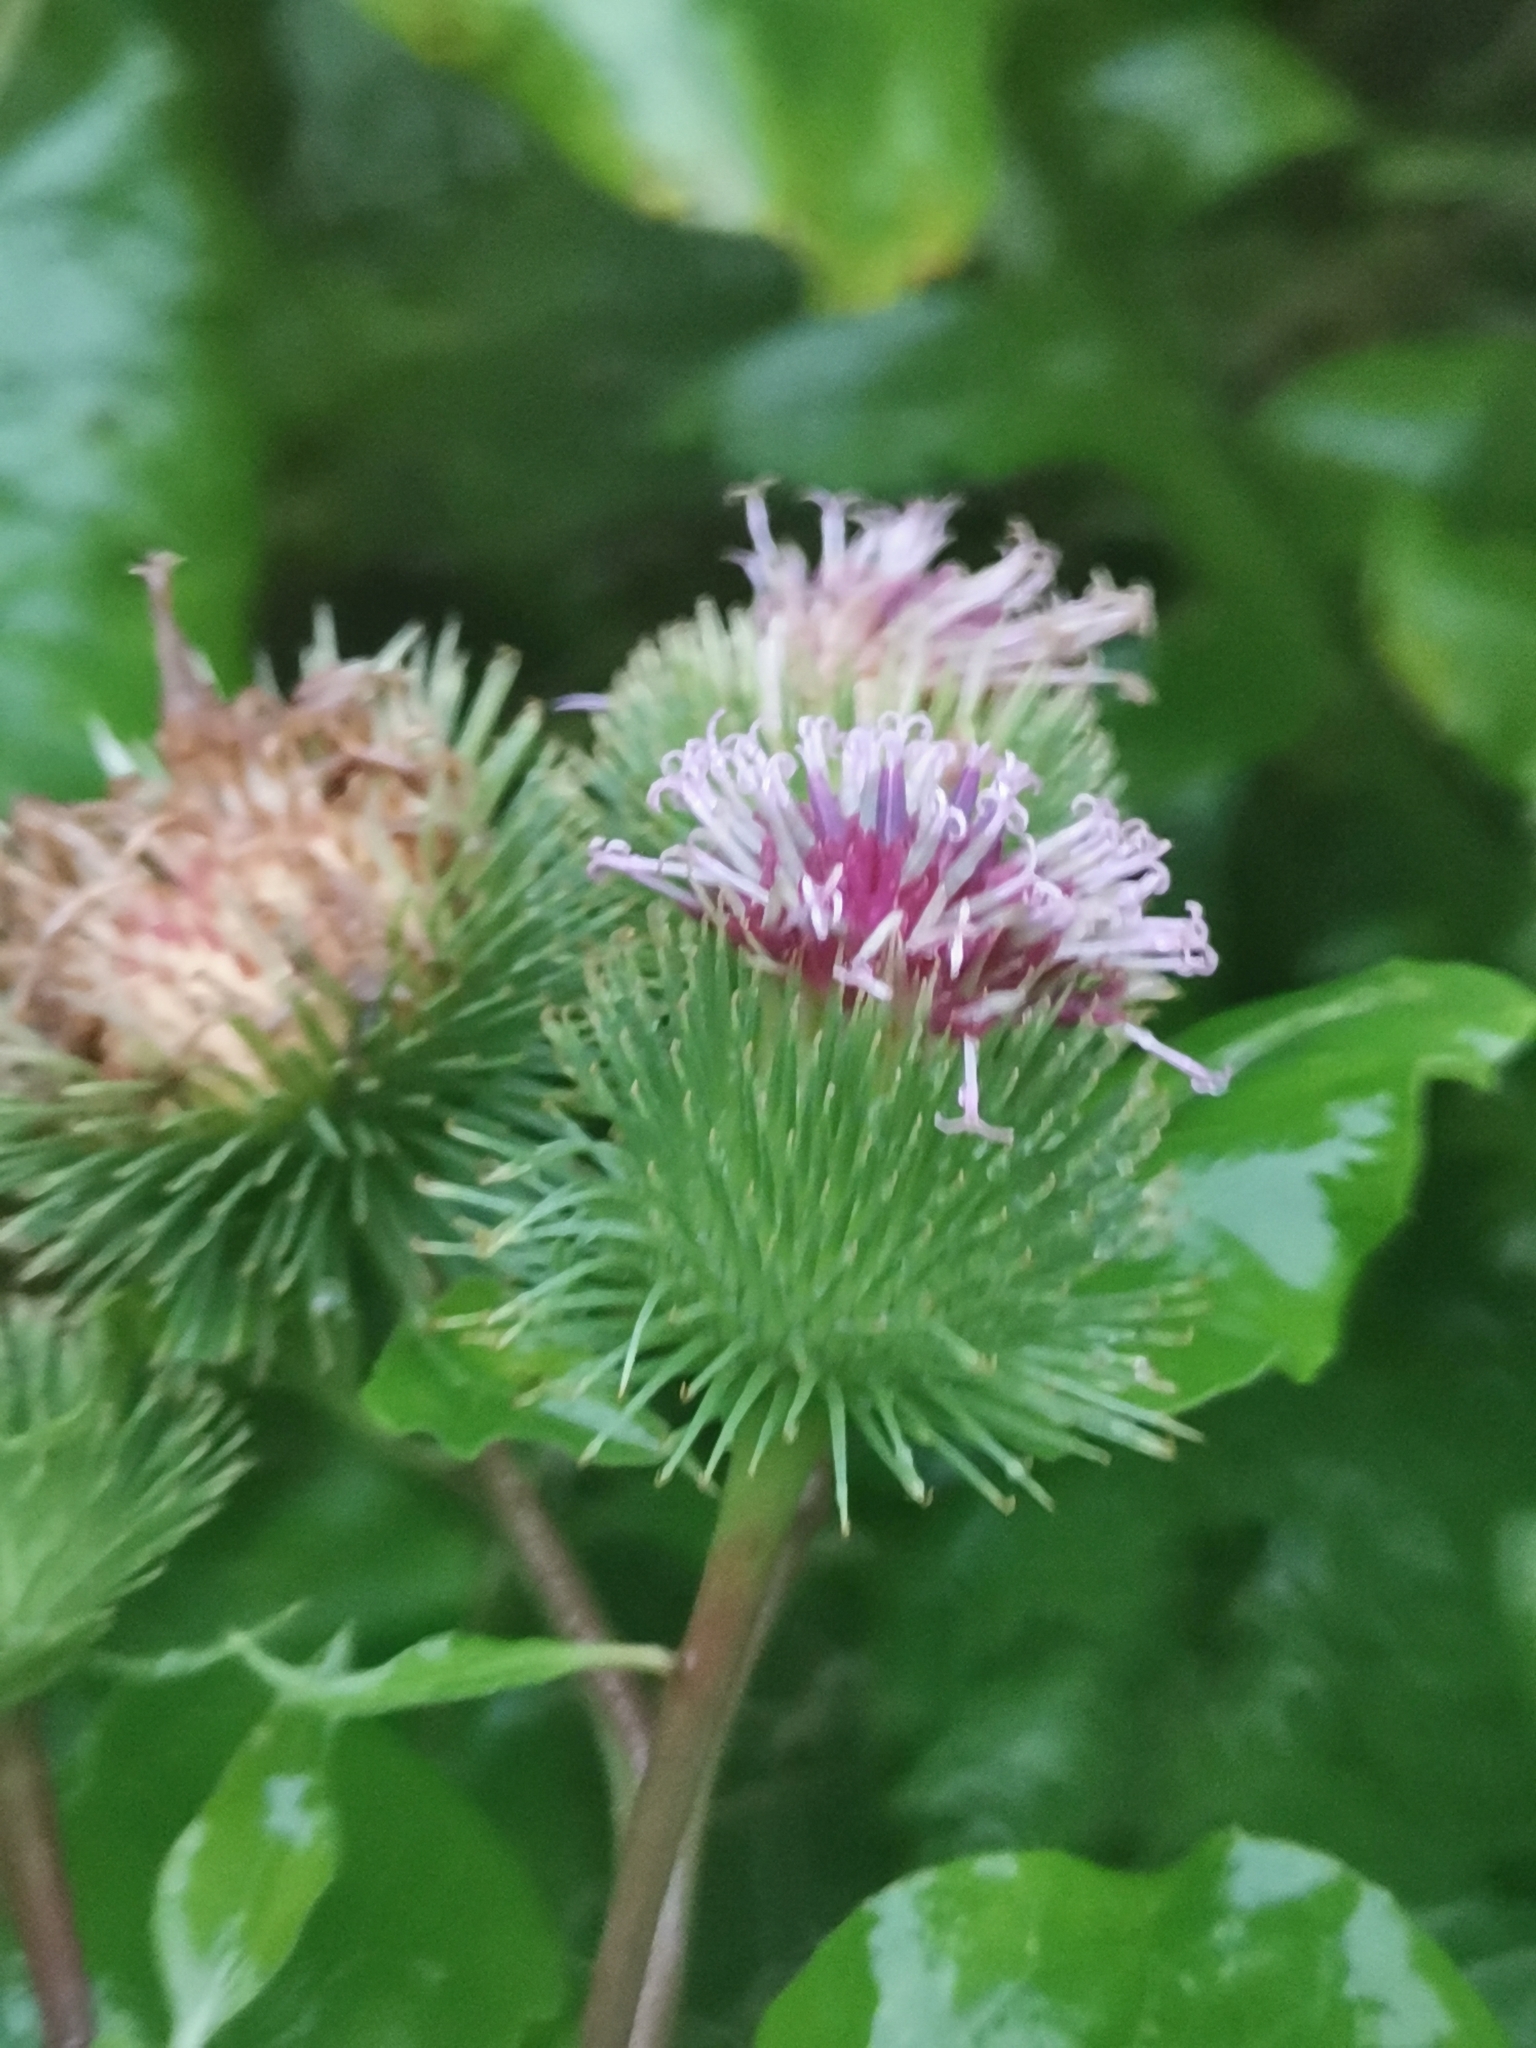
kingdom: Plantae
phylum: Tracheophyta
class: Magnoliopsida
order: Asterales
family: Asteraceae
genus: Arctium
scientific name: Arctium lappa
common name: Greater burdock
